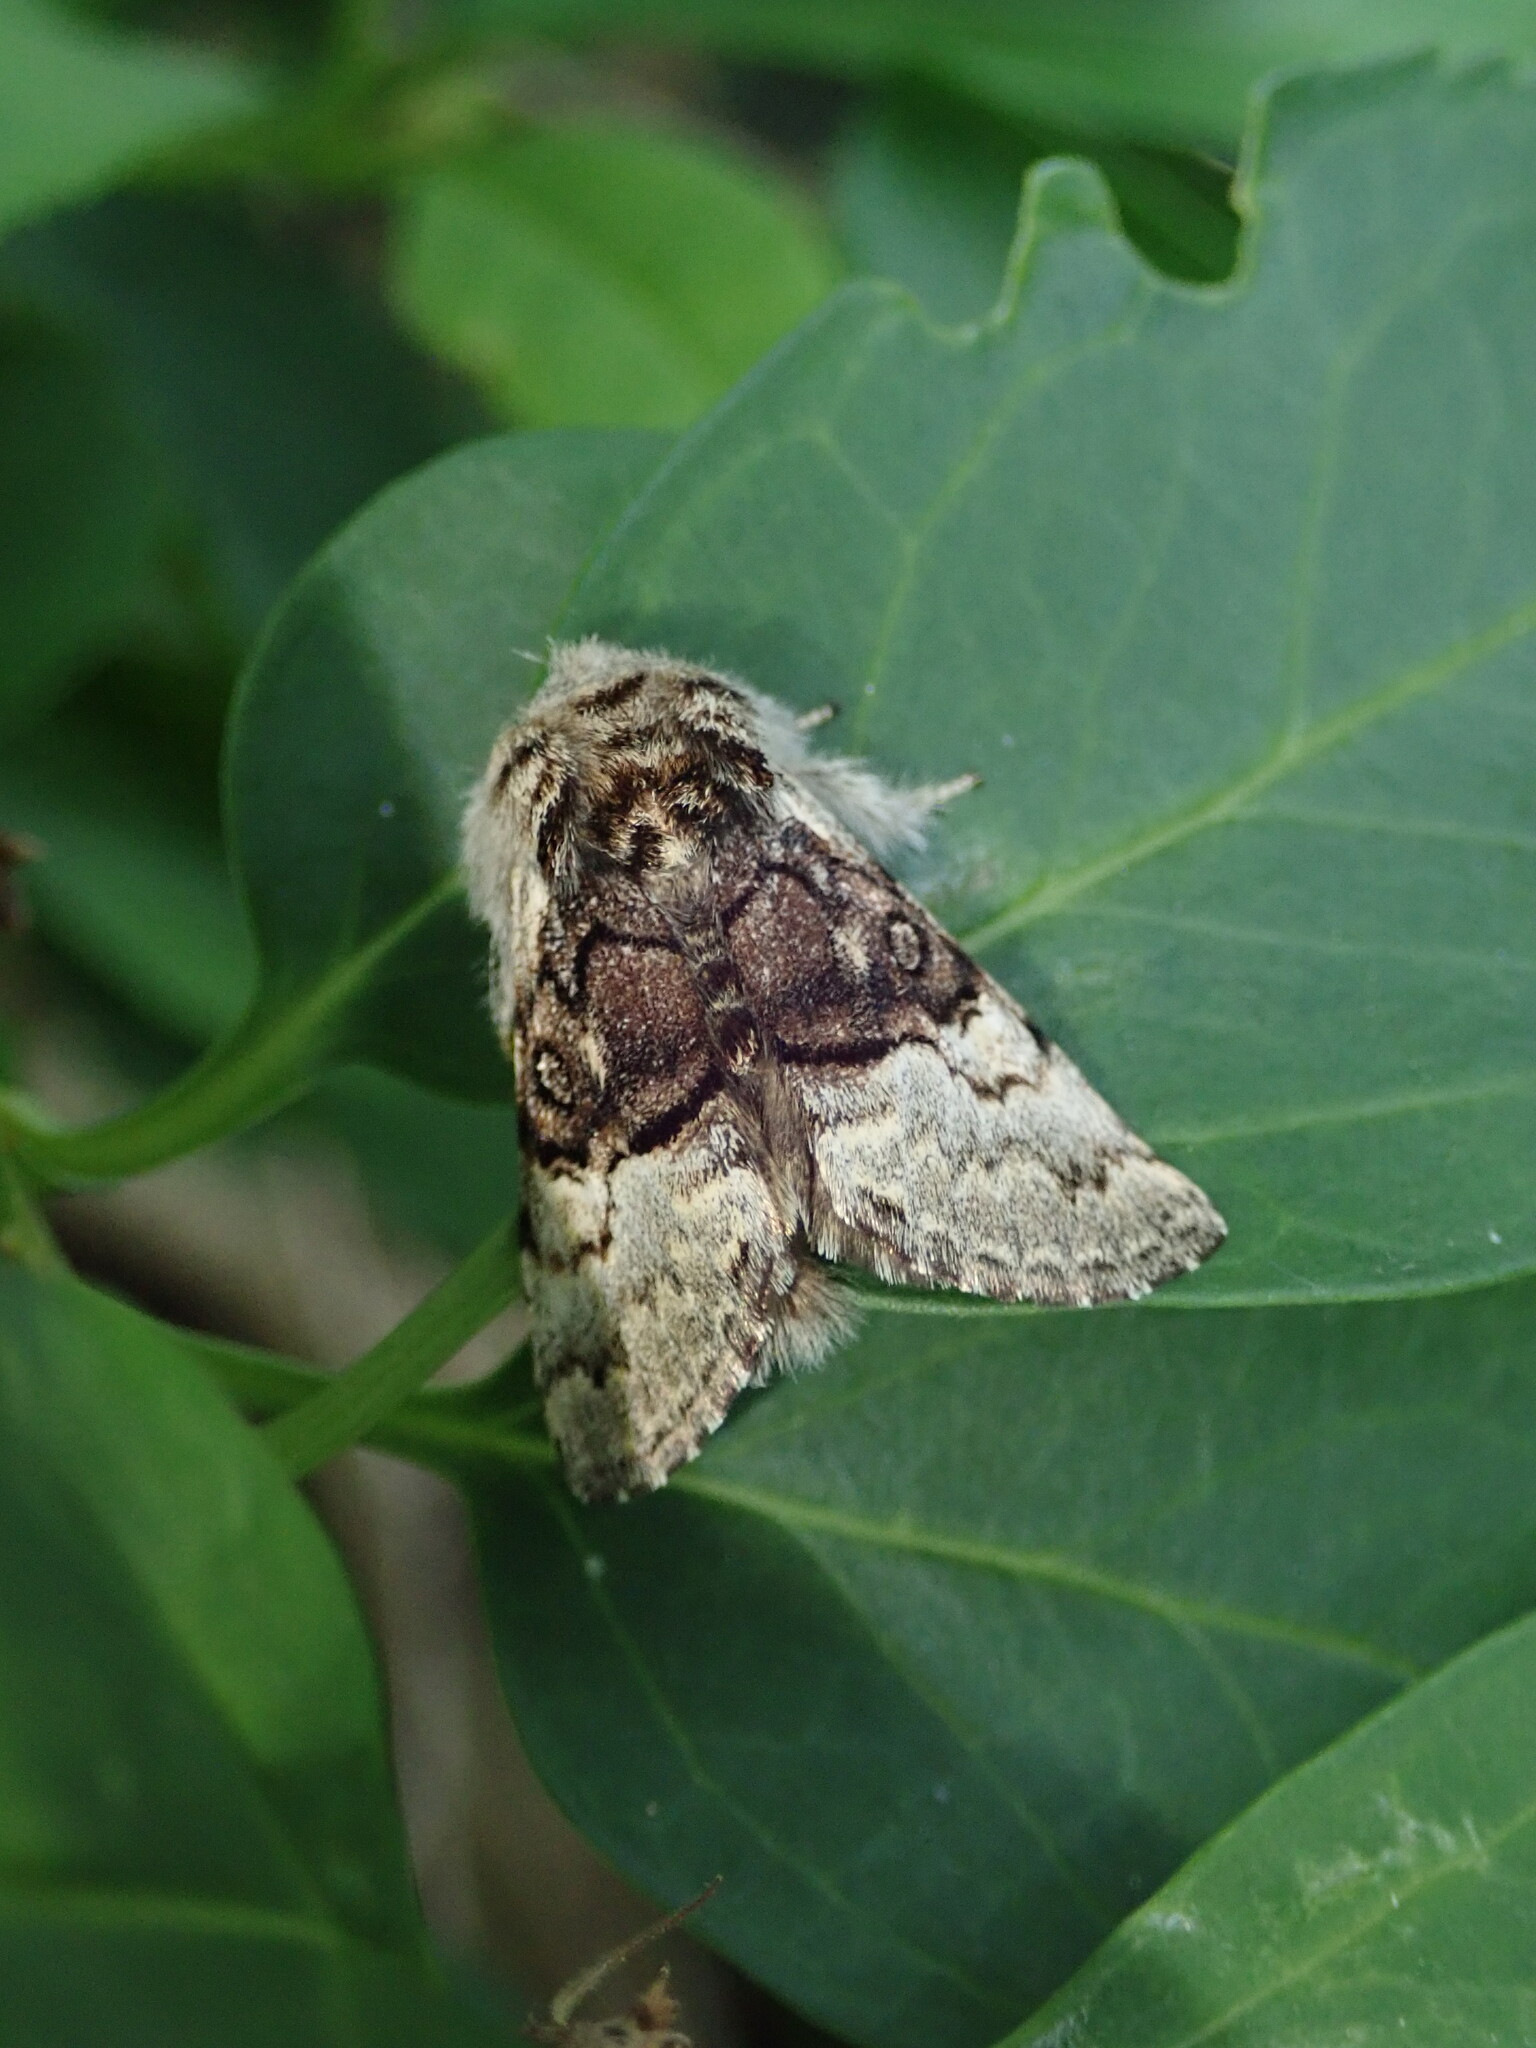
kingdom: Animalia
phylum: Arthropoda
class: Insecta
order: Lepidoptera
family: Noctuidae
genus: Colocasia
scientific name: Colocasia coryli
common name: Nut-tree tussock
